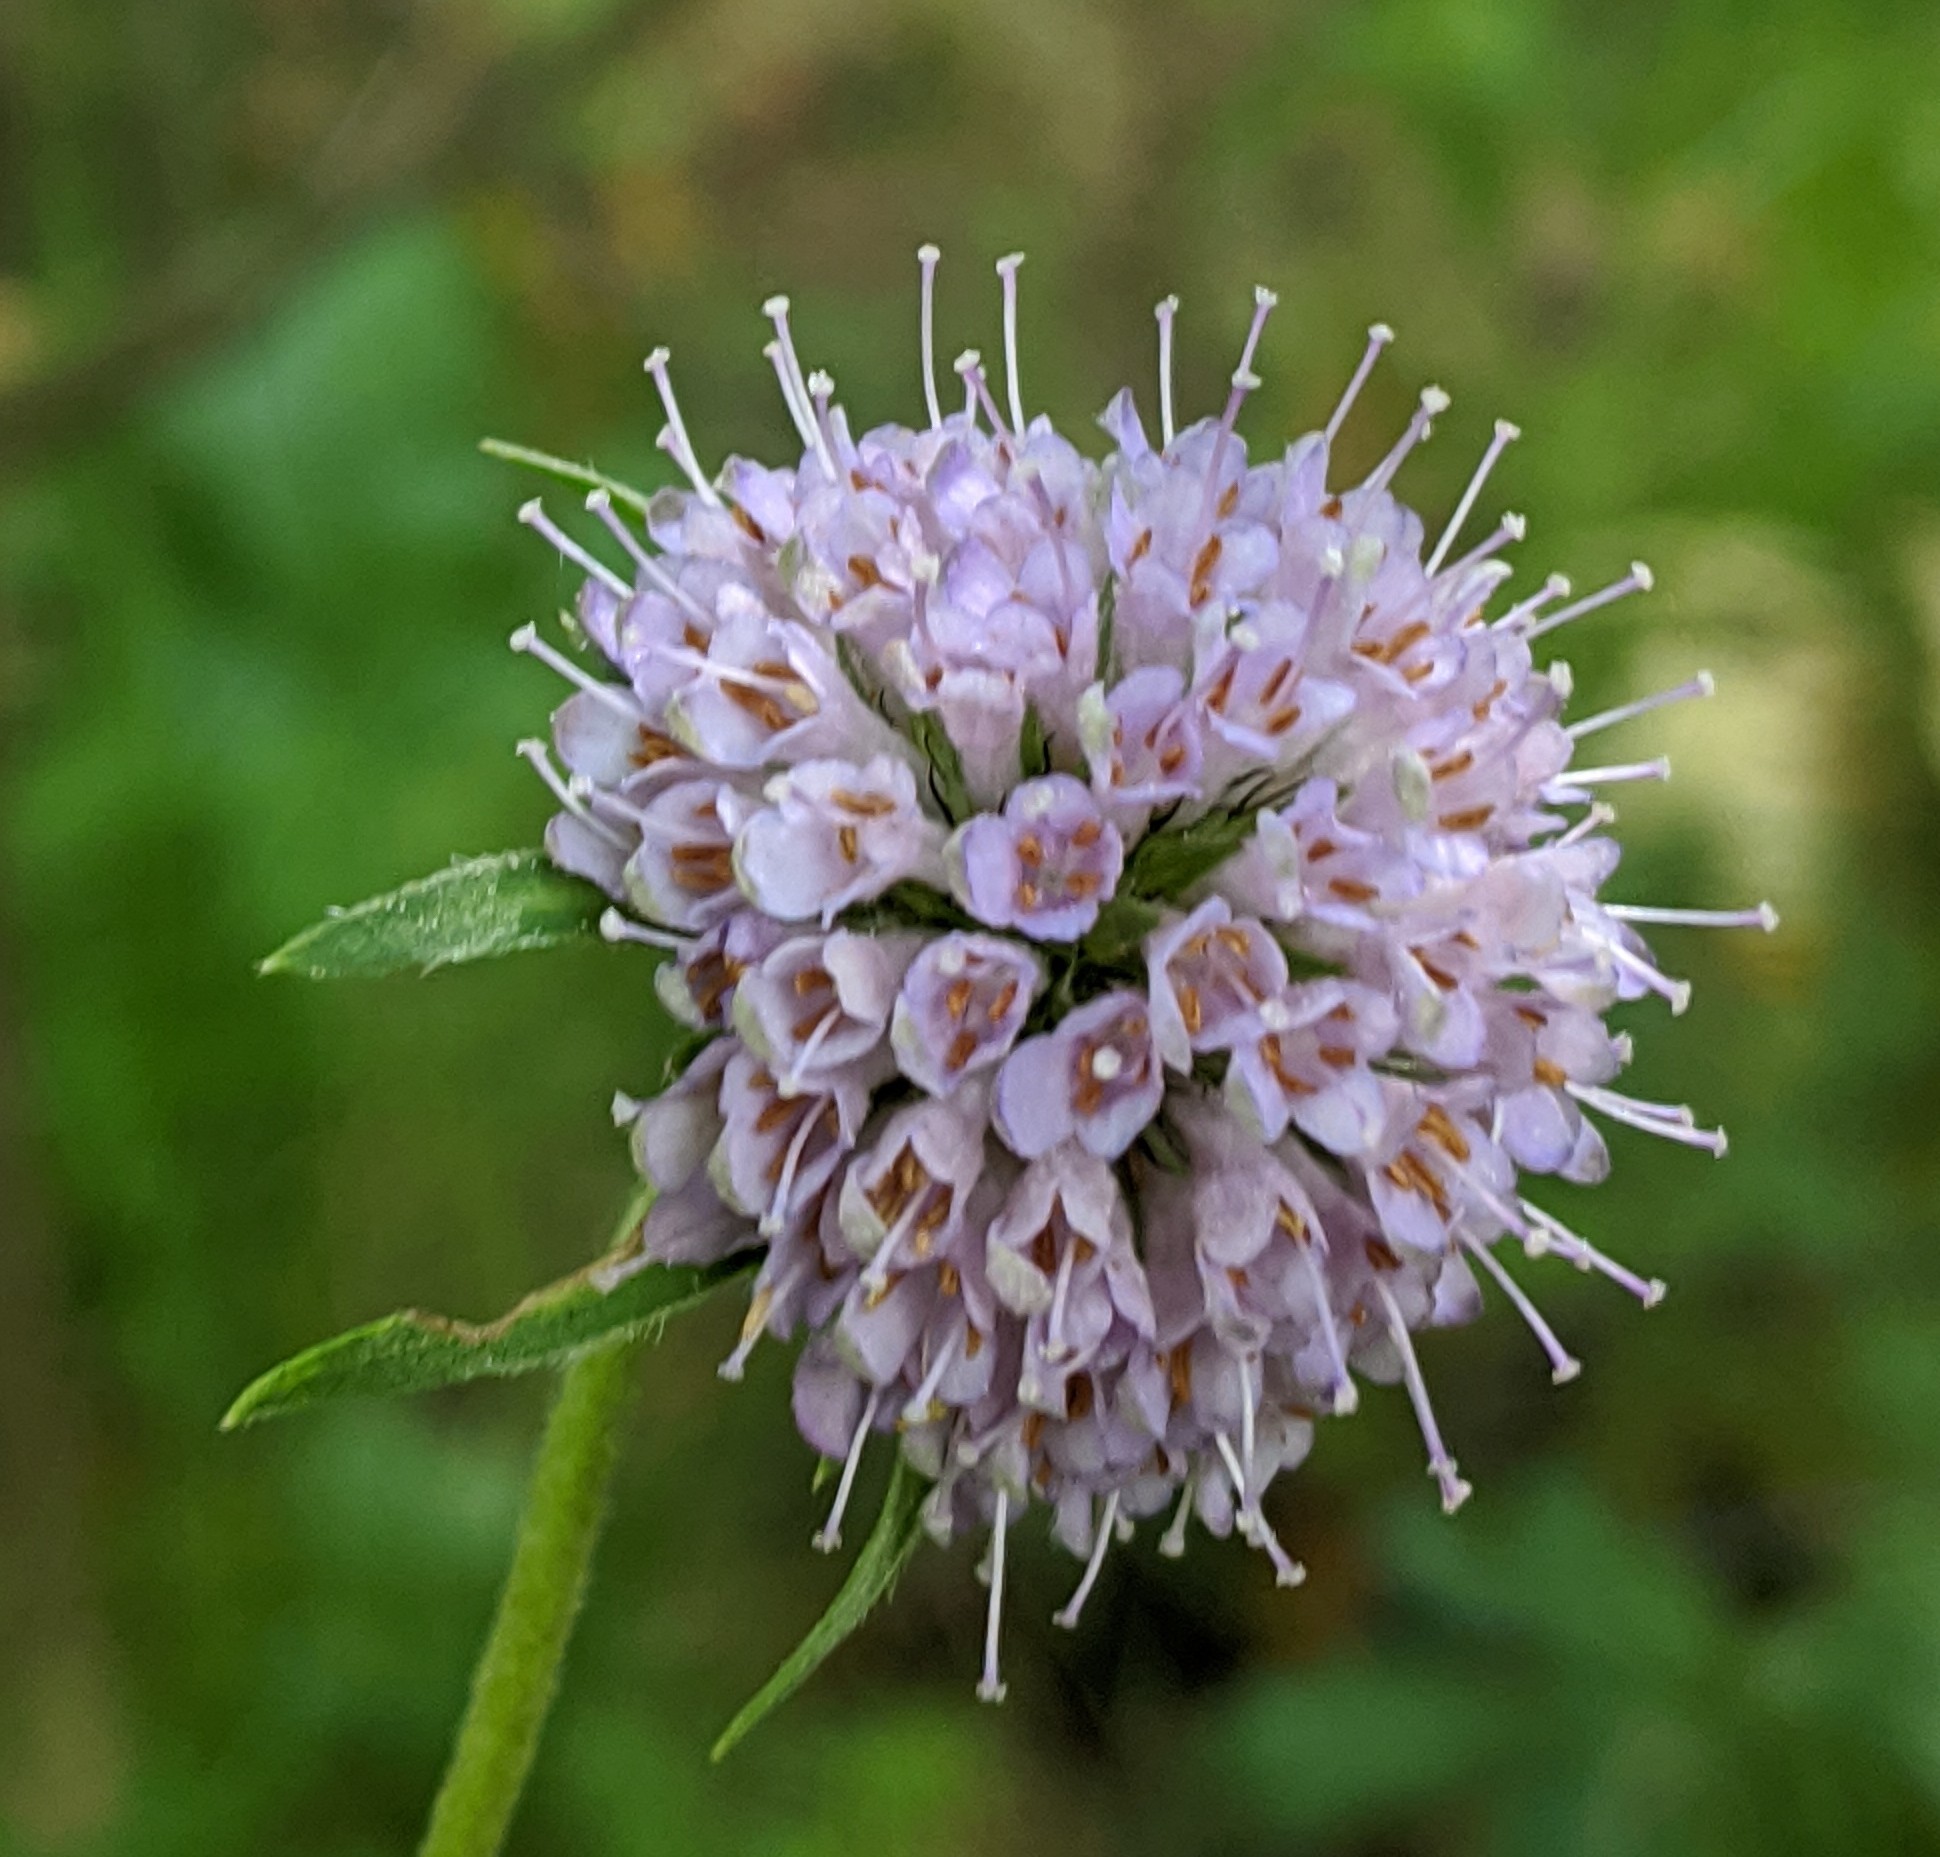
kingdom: Plantae
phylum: Tracheophyta
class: Magnoliopsida
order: Dipsacales
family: Caprifoliaceae
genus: Succisa
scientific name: Succisa pratensis
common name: Devil's-bit
